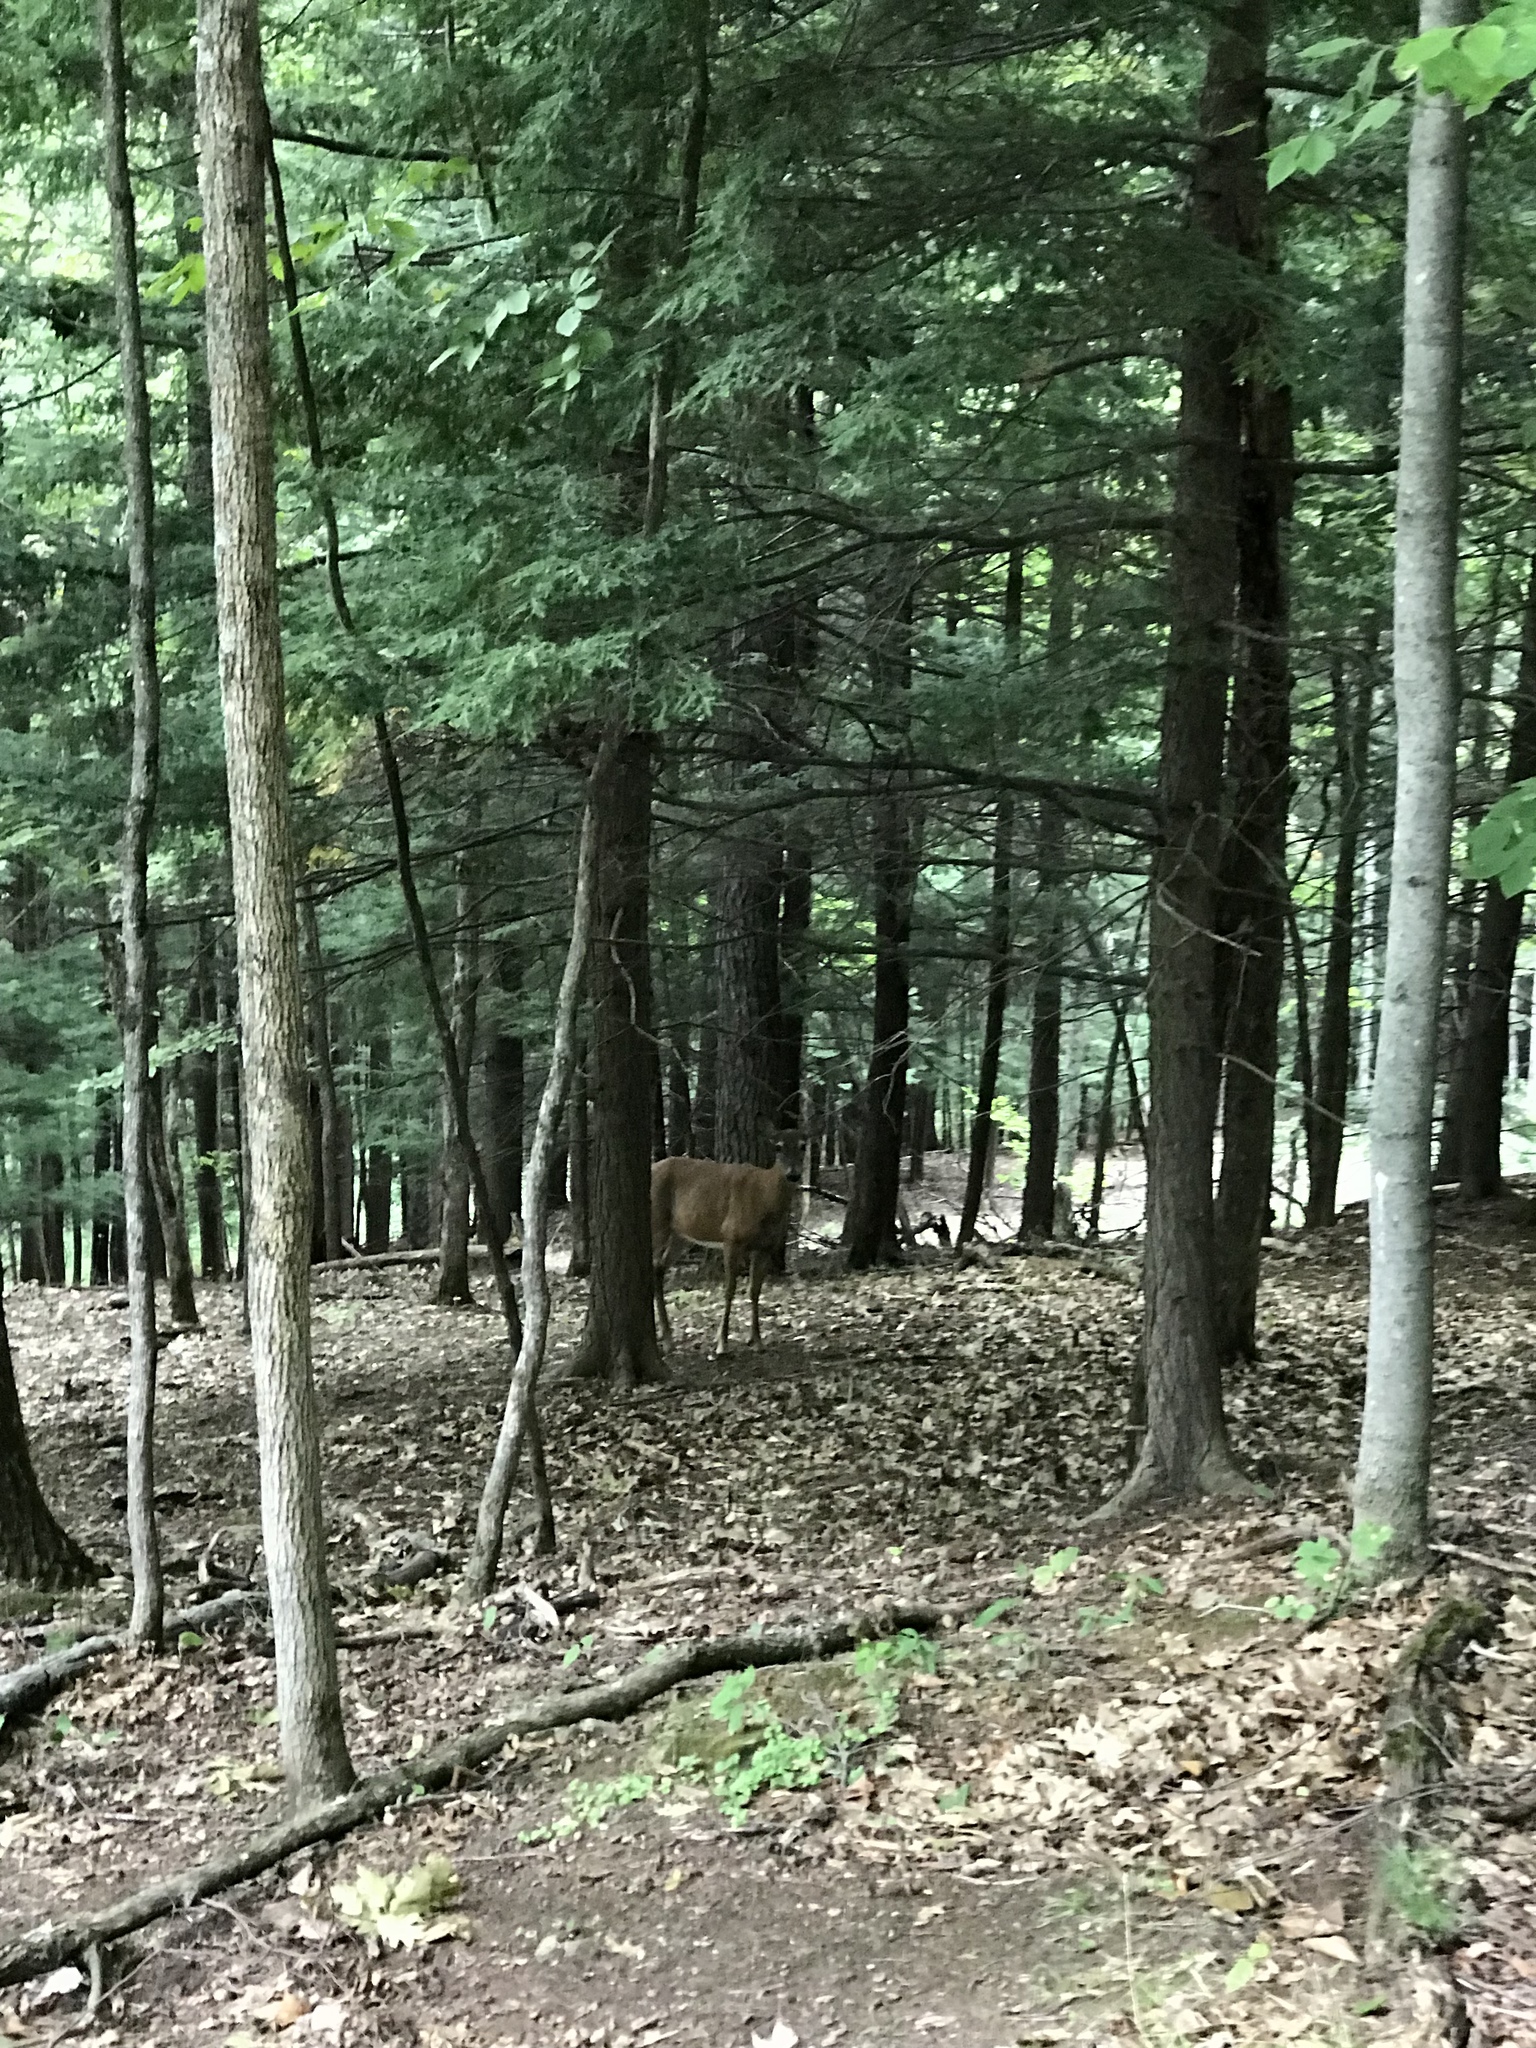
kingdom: Animalia
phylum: Chordata
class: Mammalia
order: Artiodactyla
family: Cervidae
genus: Odocoileus
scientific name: Odocoileus virginianus
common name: White-tailed deer
